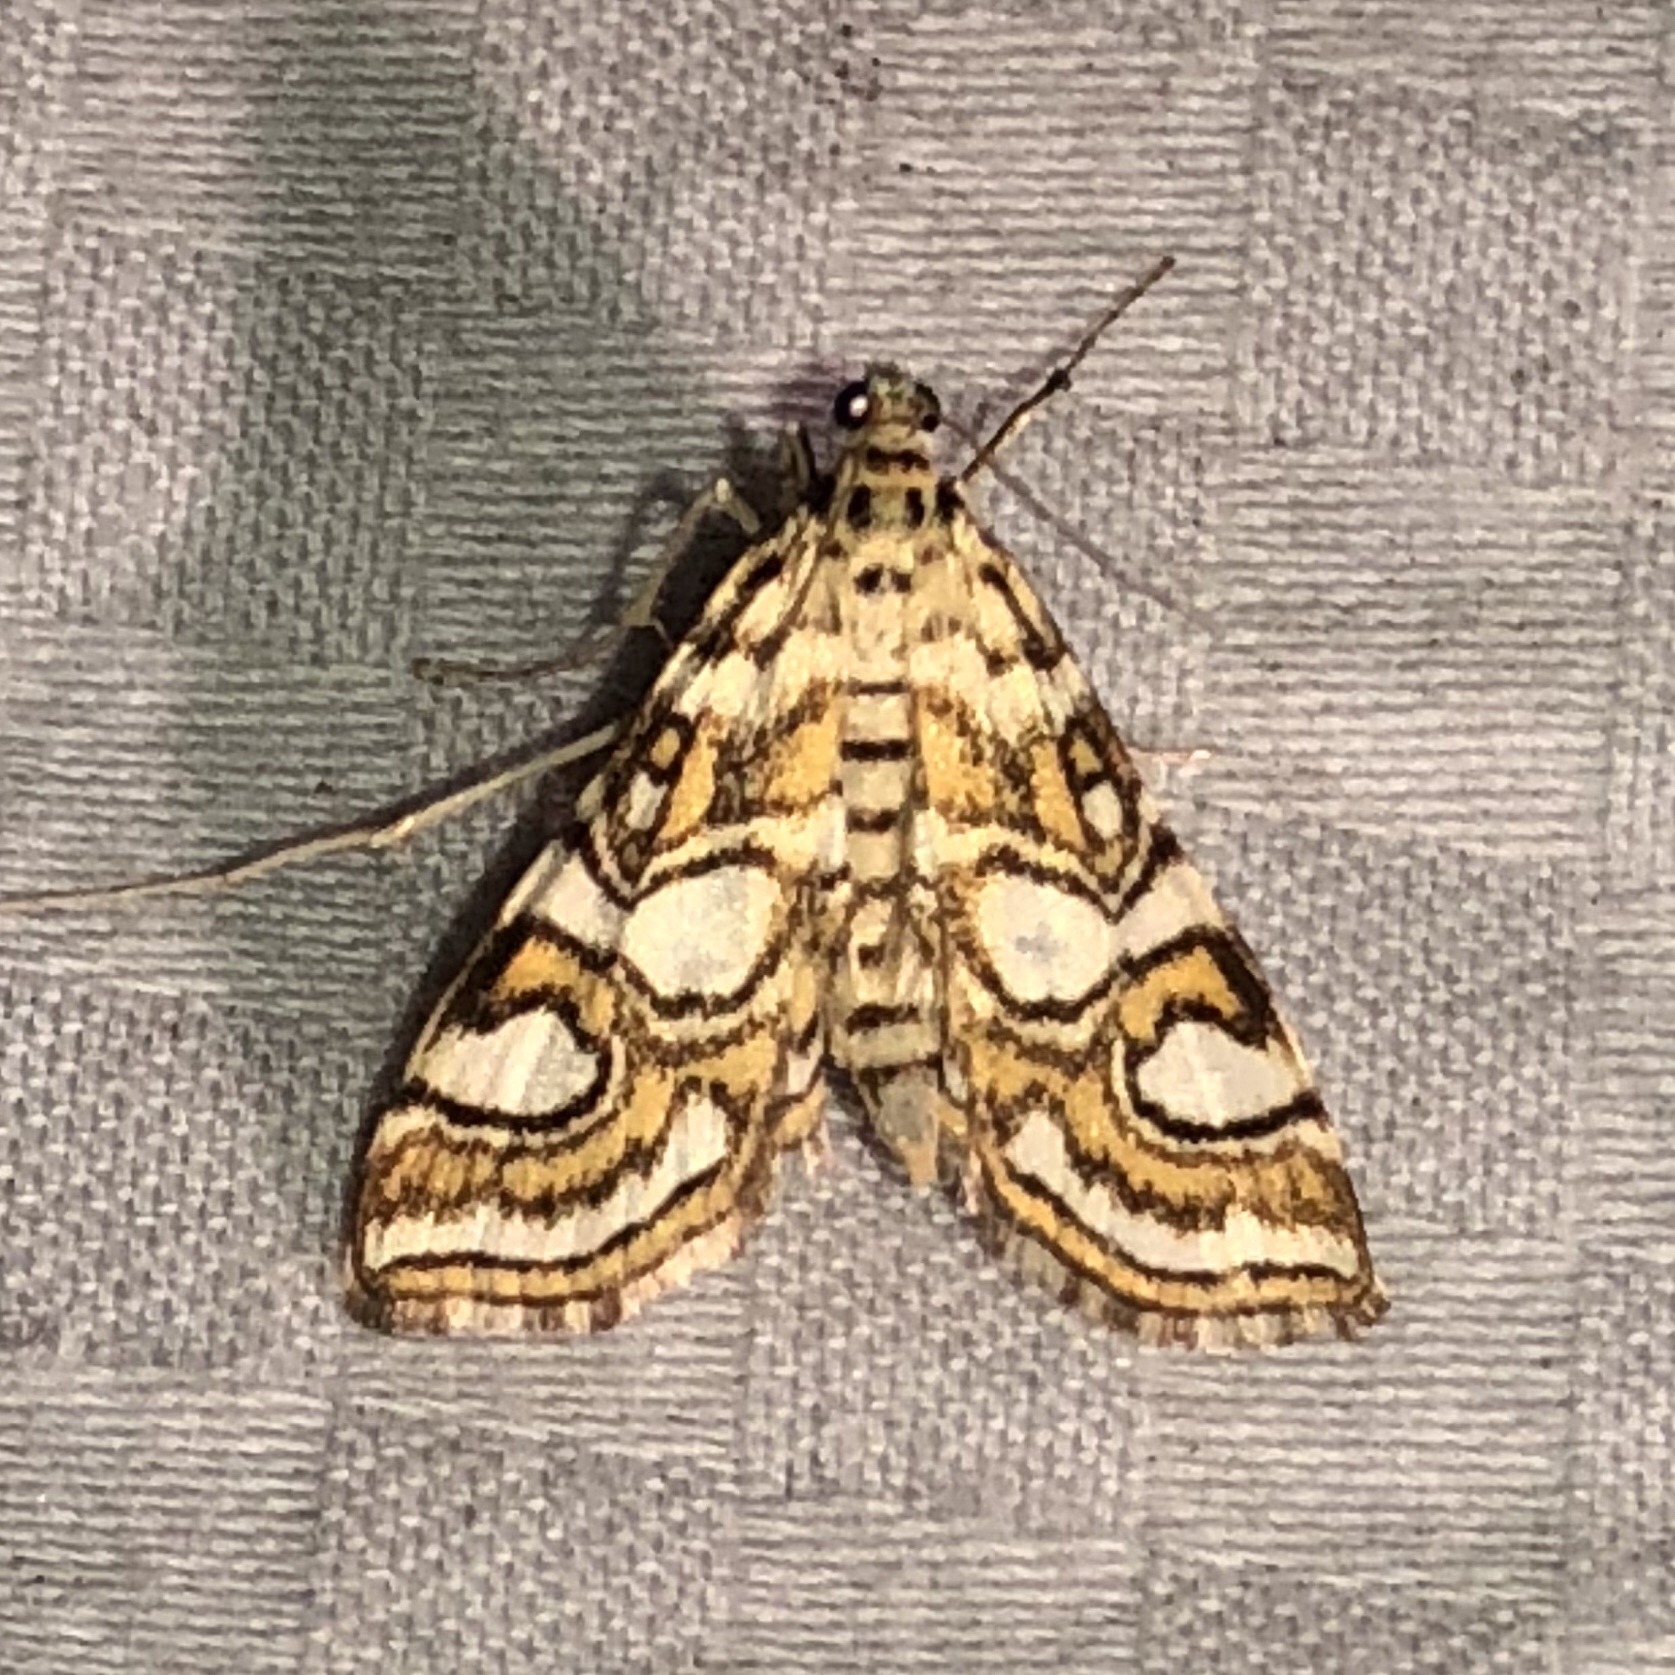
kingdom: Animalia
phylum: Arthropoda
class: Insecta
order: Lepidoptera
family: Crambidae
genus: Elophila
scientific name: Elophila ekthlipsis
